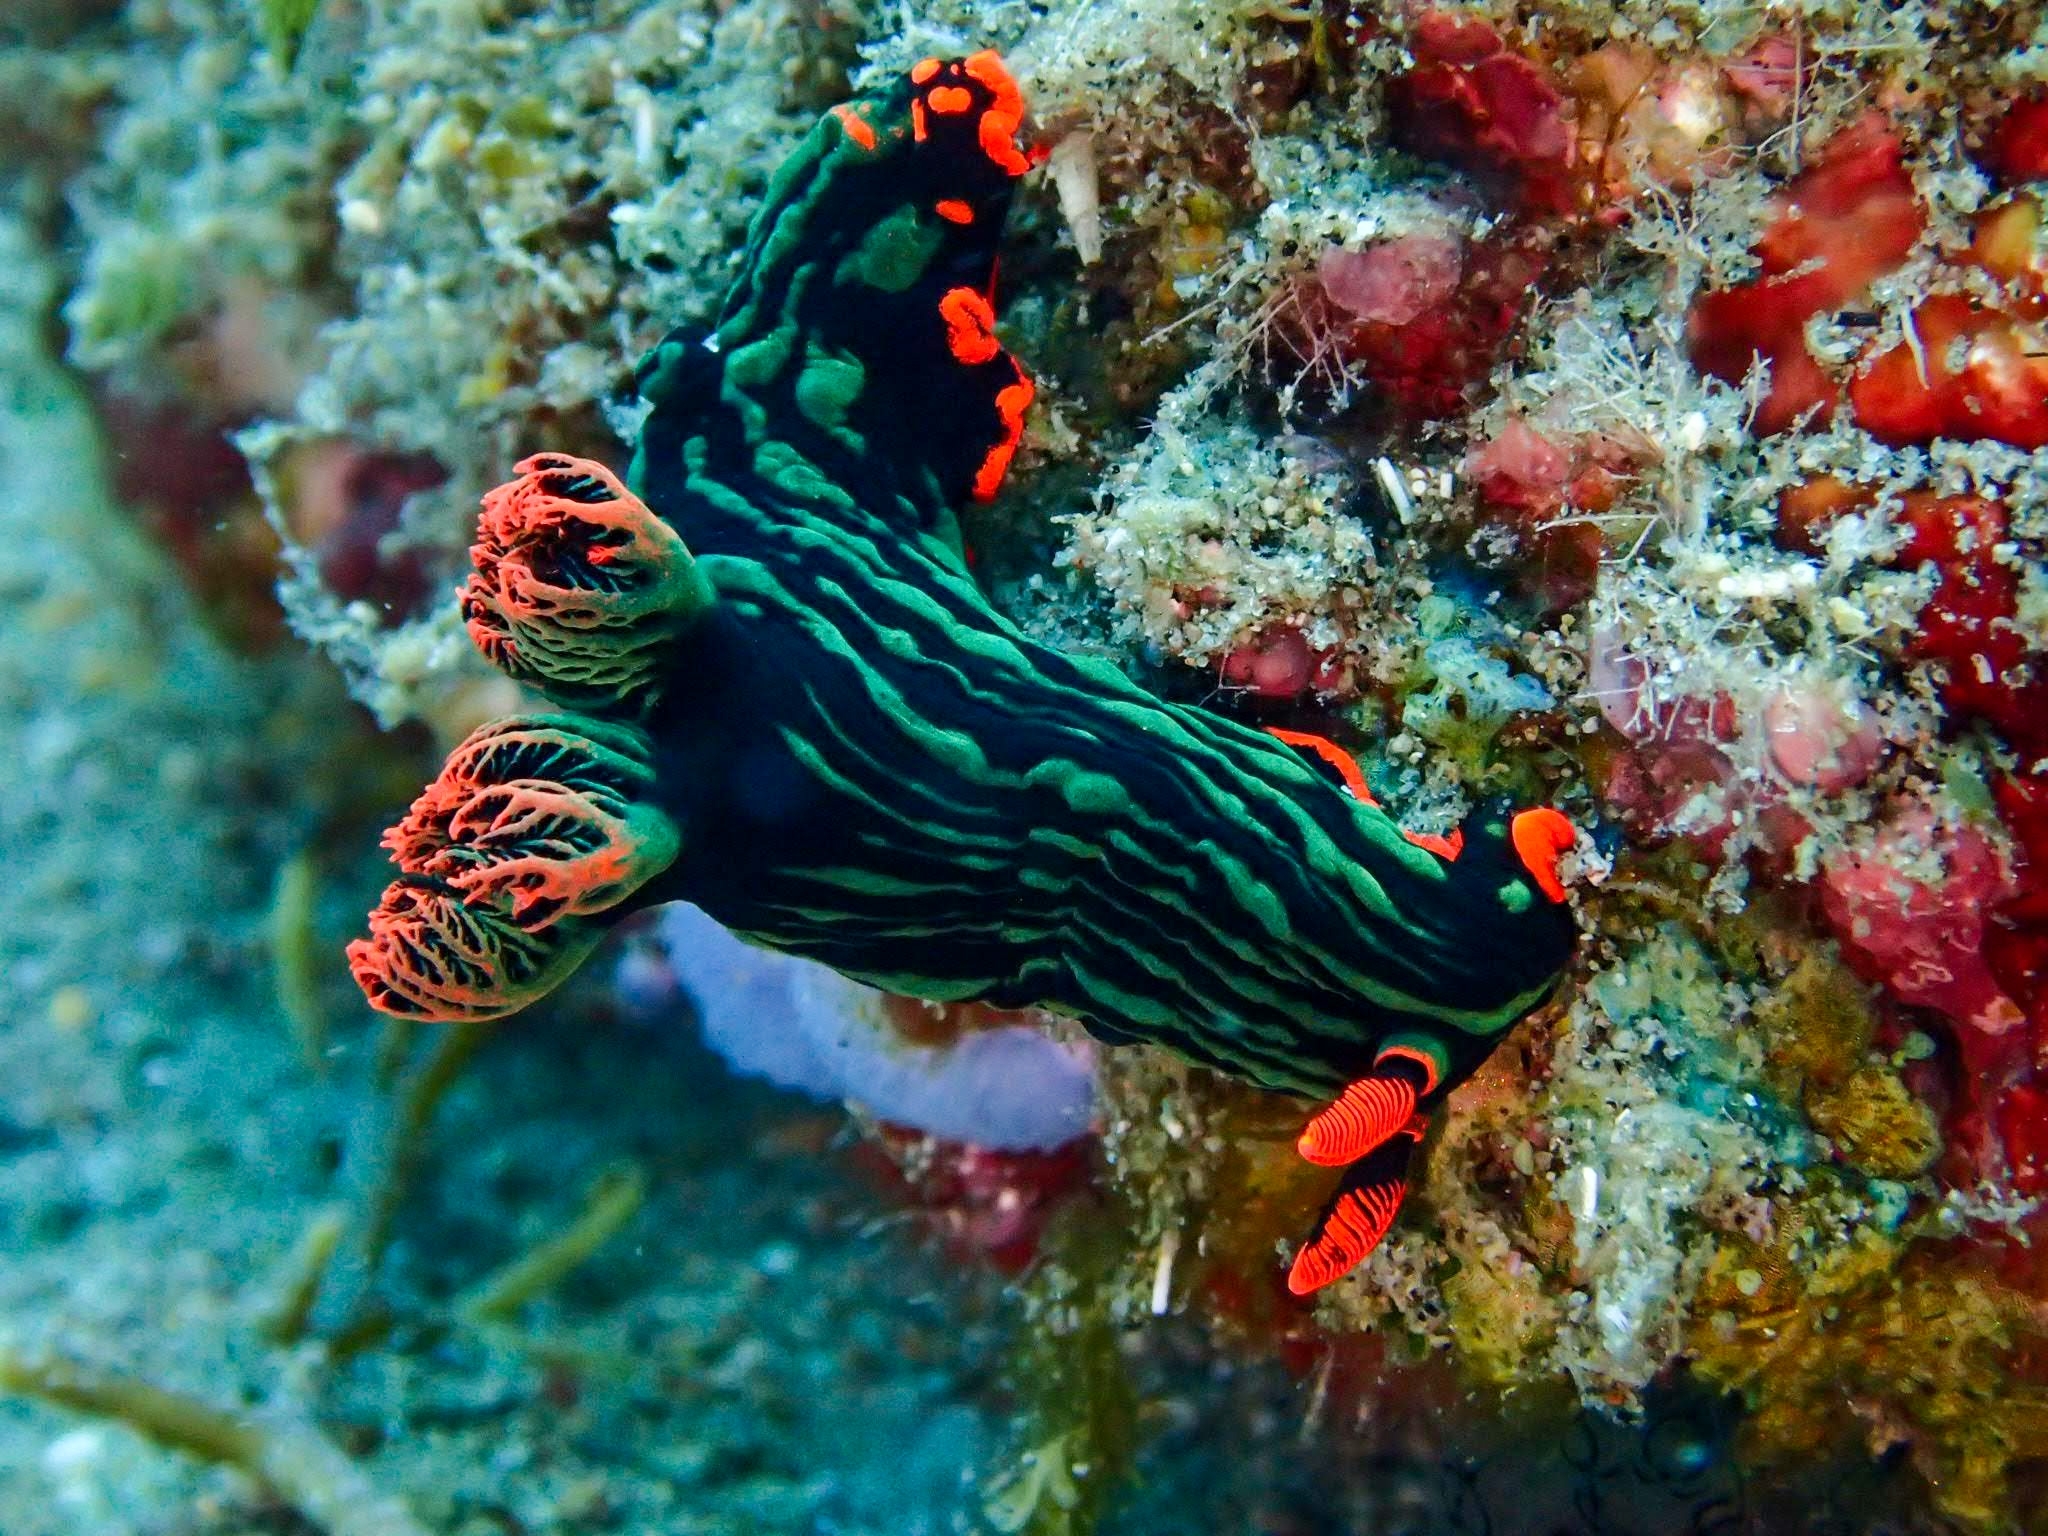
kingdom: Animalia
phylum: Mollusca
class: Gastropoda
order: Nudibranchia
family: Polyceridae
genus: Nembrotha
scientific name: Nembrotha kubaryana
